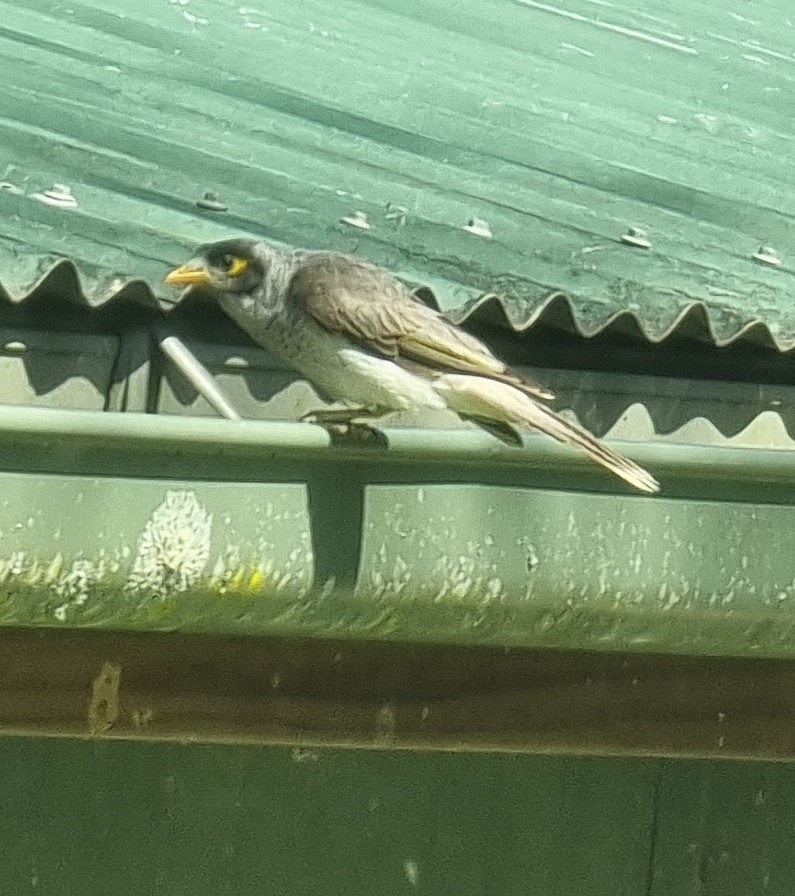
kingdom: Animalia
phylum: Chordata
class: Aves
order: Passeriformes
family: Meliphagidae
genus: Manorina
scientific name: Manorina melanocephala
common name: Noisy miner
